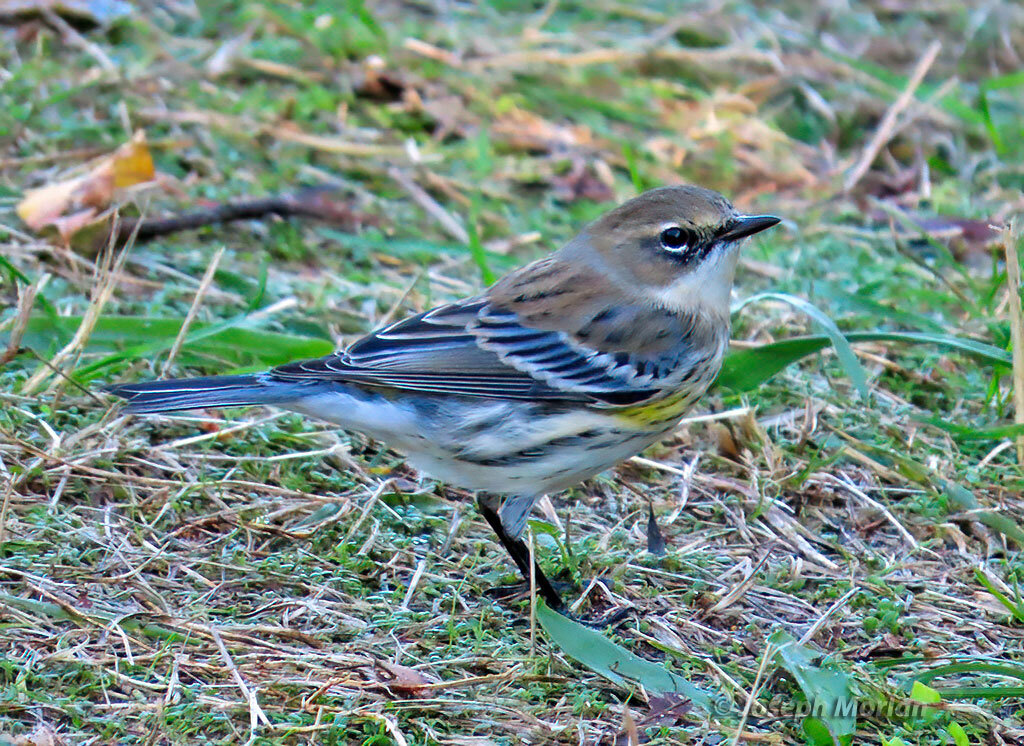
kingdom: Animalia
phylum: Chordata
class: Aves
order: Passeriformes
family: Parulidae
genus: Setophaga
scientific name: Setophaga coronata
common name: Myrtle warbler
